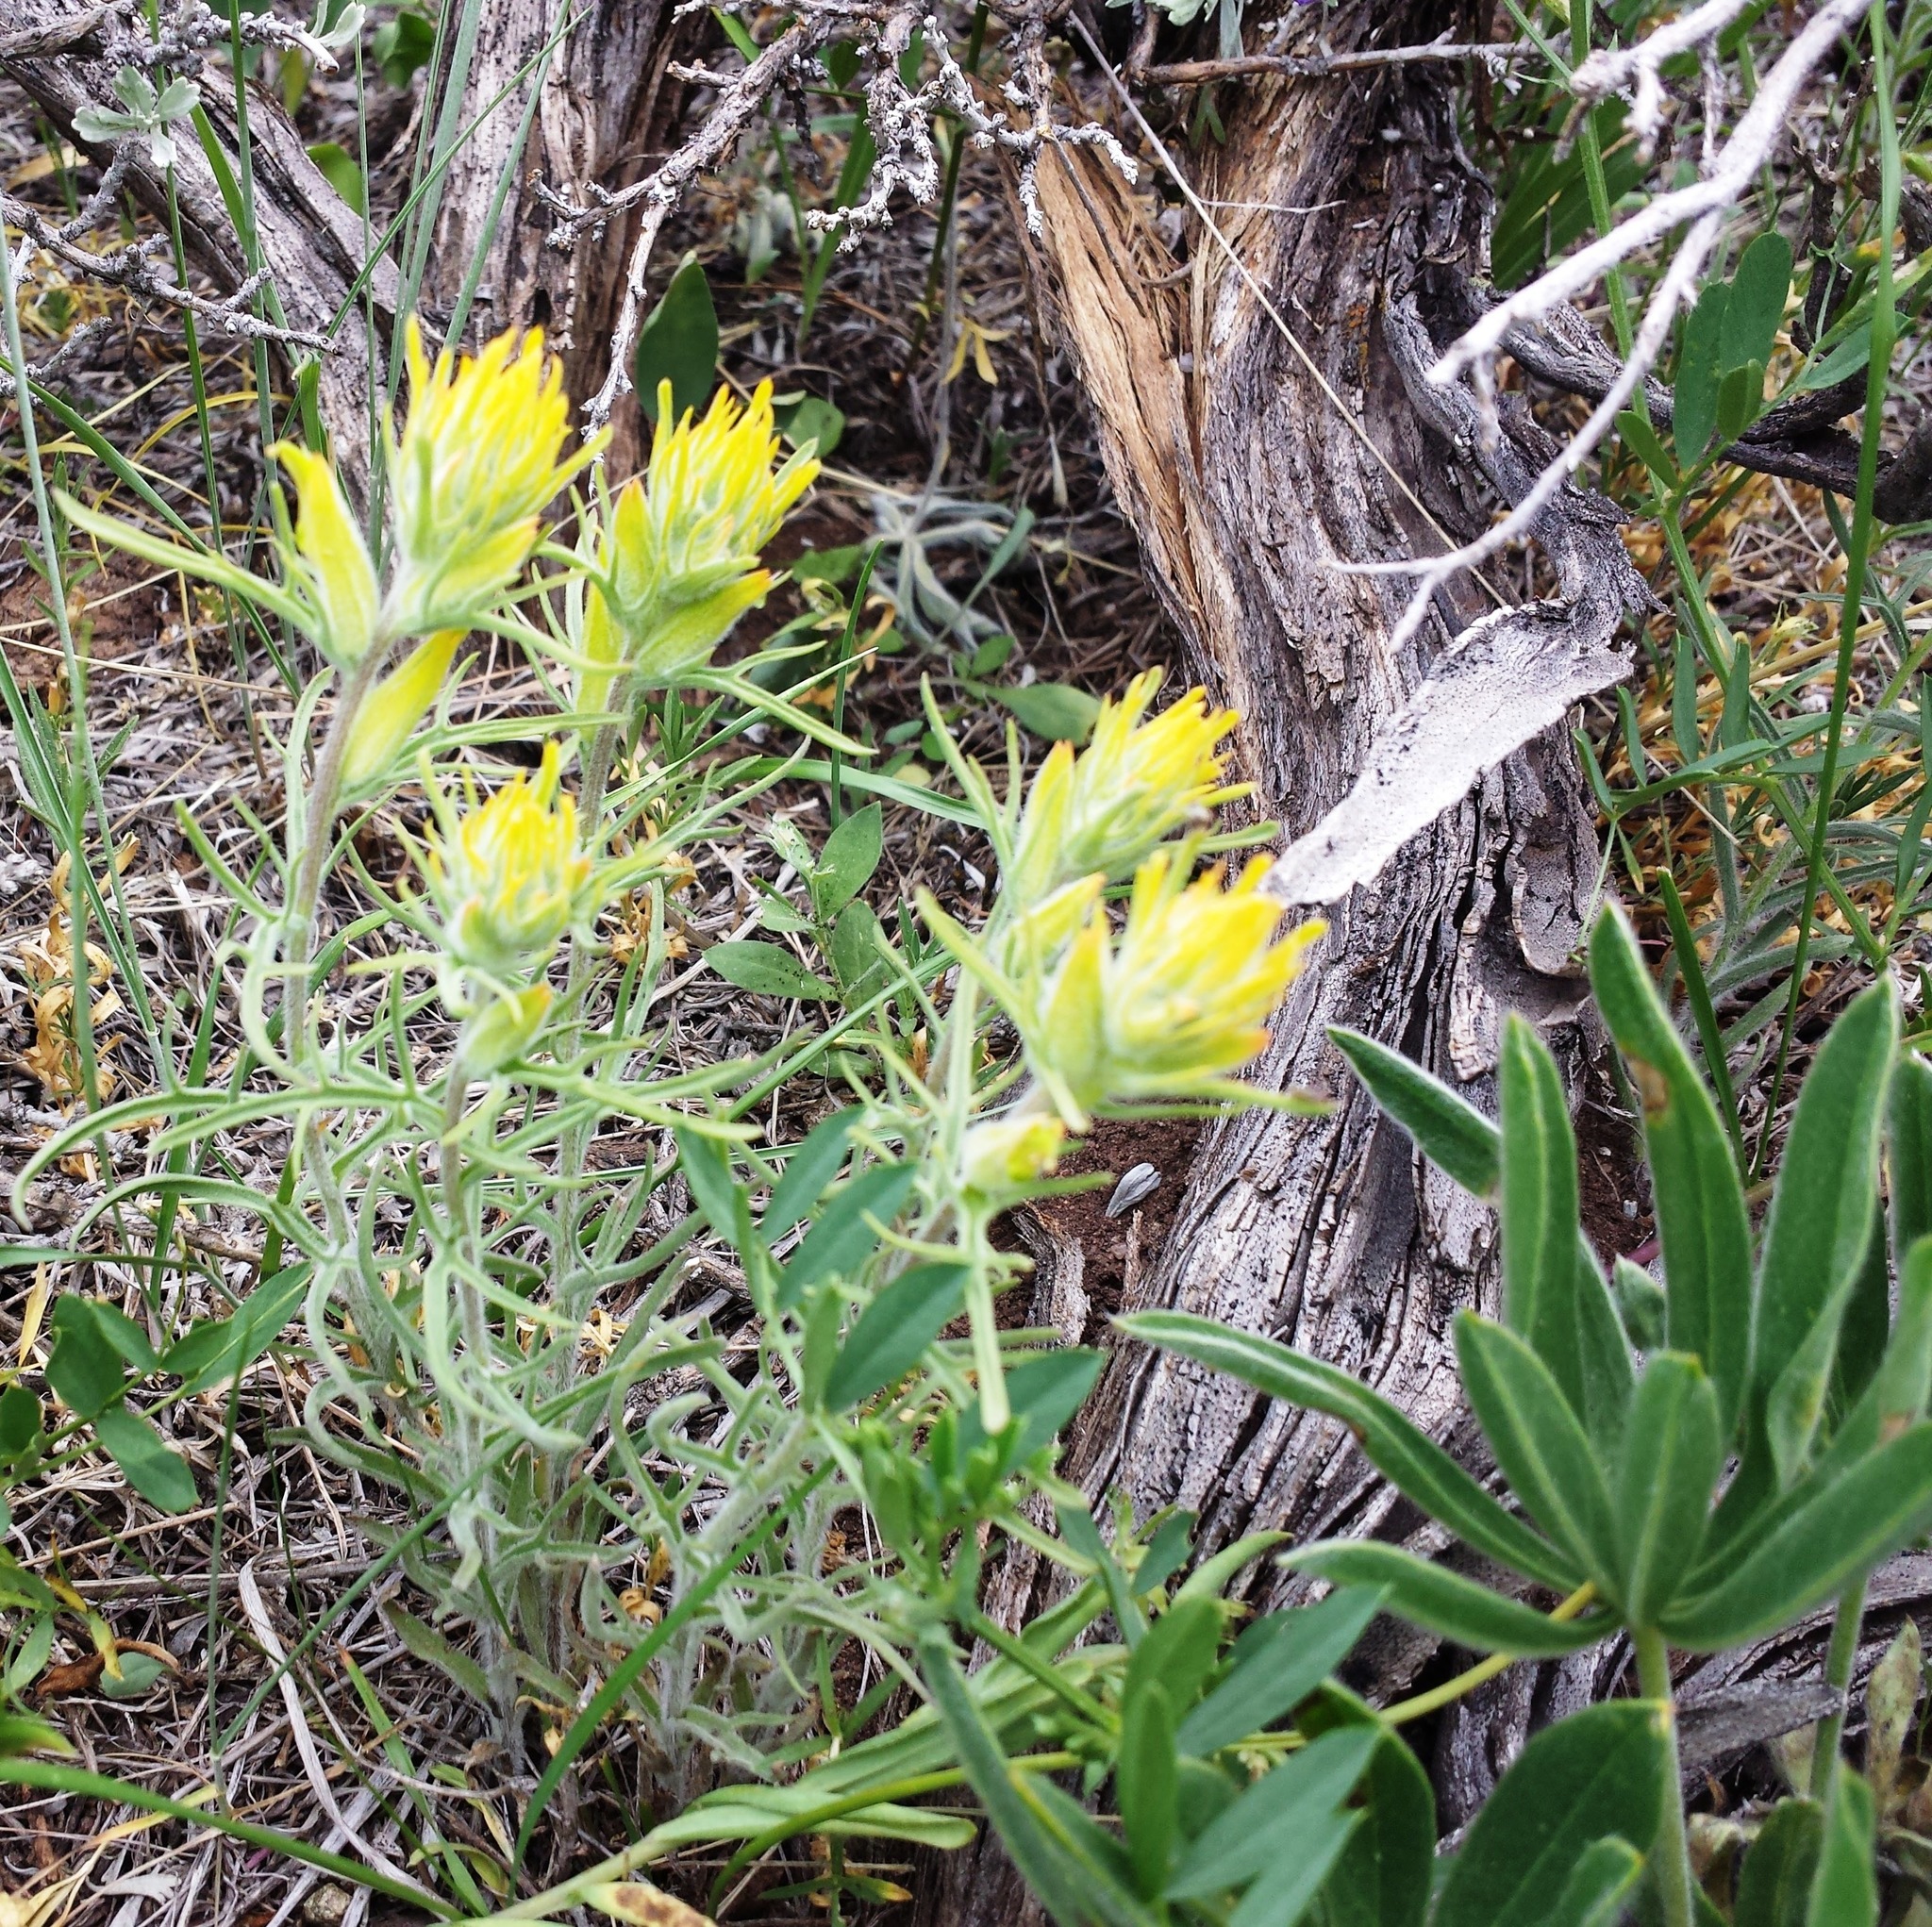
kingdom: Plantae
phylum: Tracheophyta
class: Magnoliopsida
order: Lamiales
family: Orobanchaceae
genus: Castilleja
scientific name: Castilleja flava
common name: Yellow paintbrush
